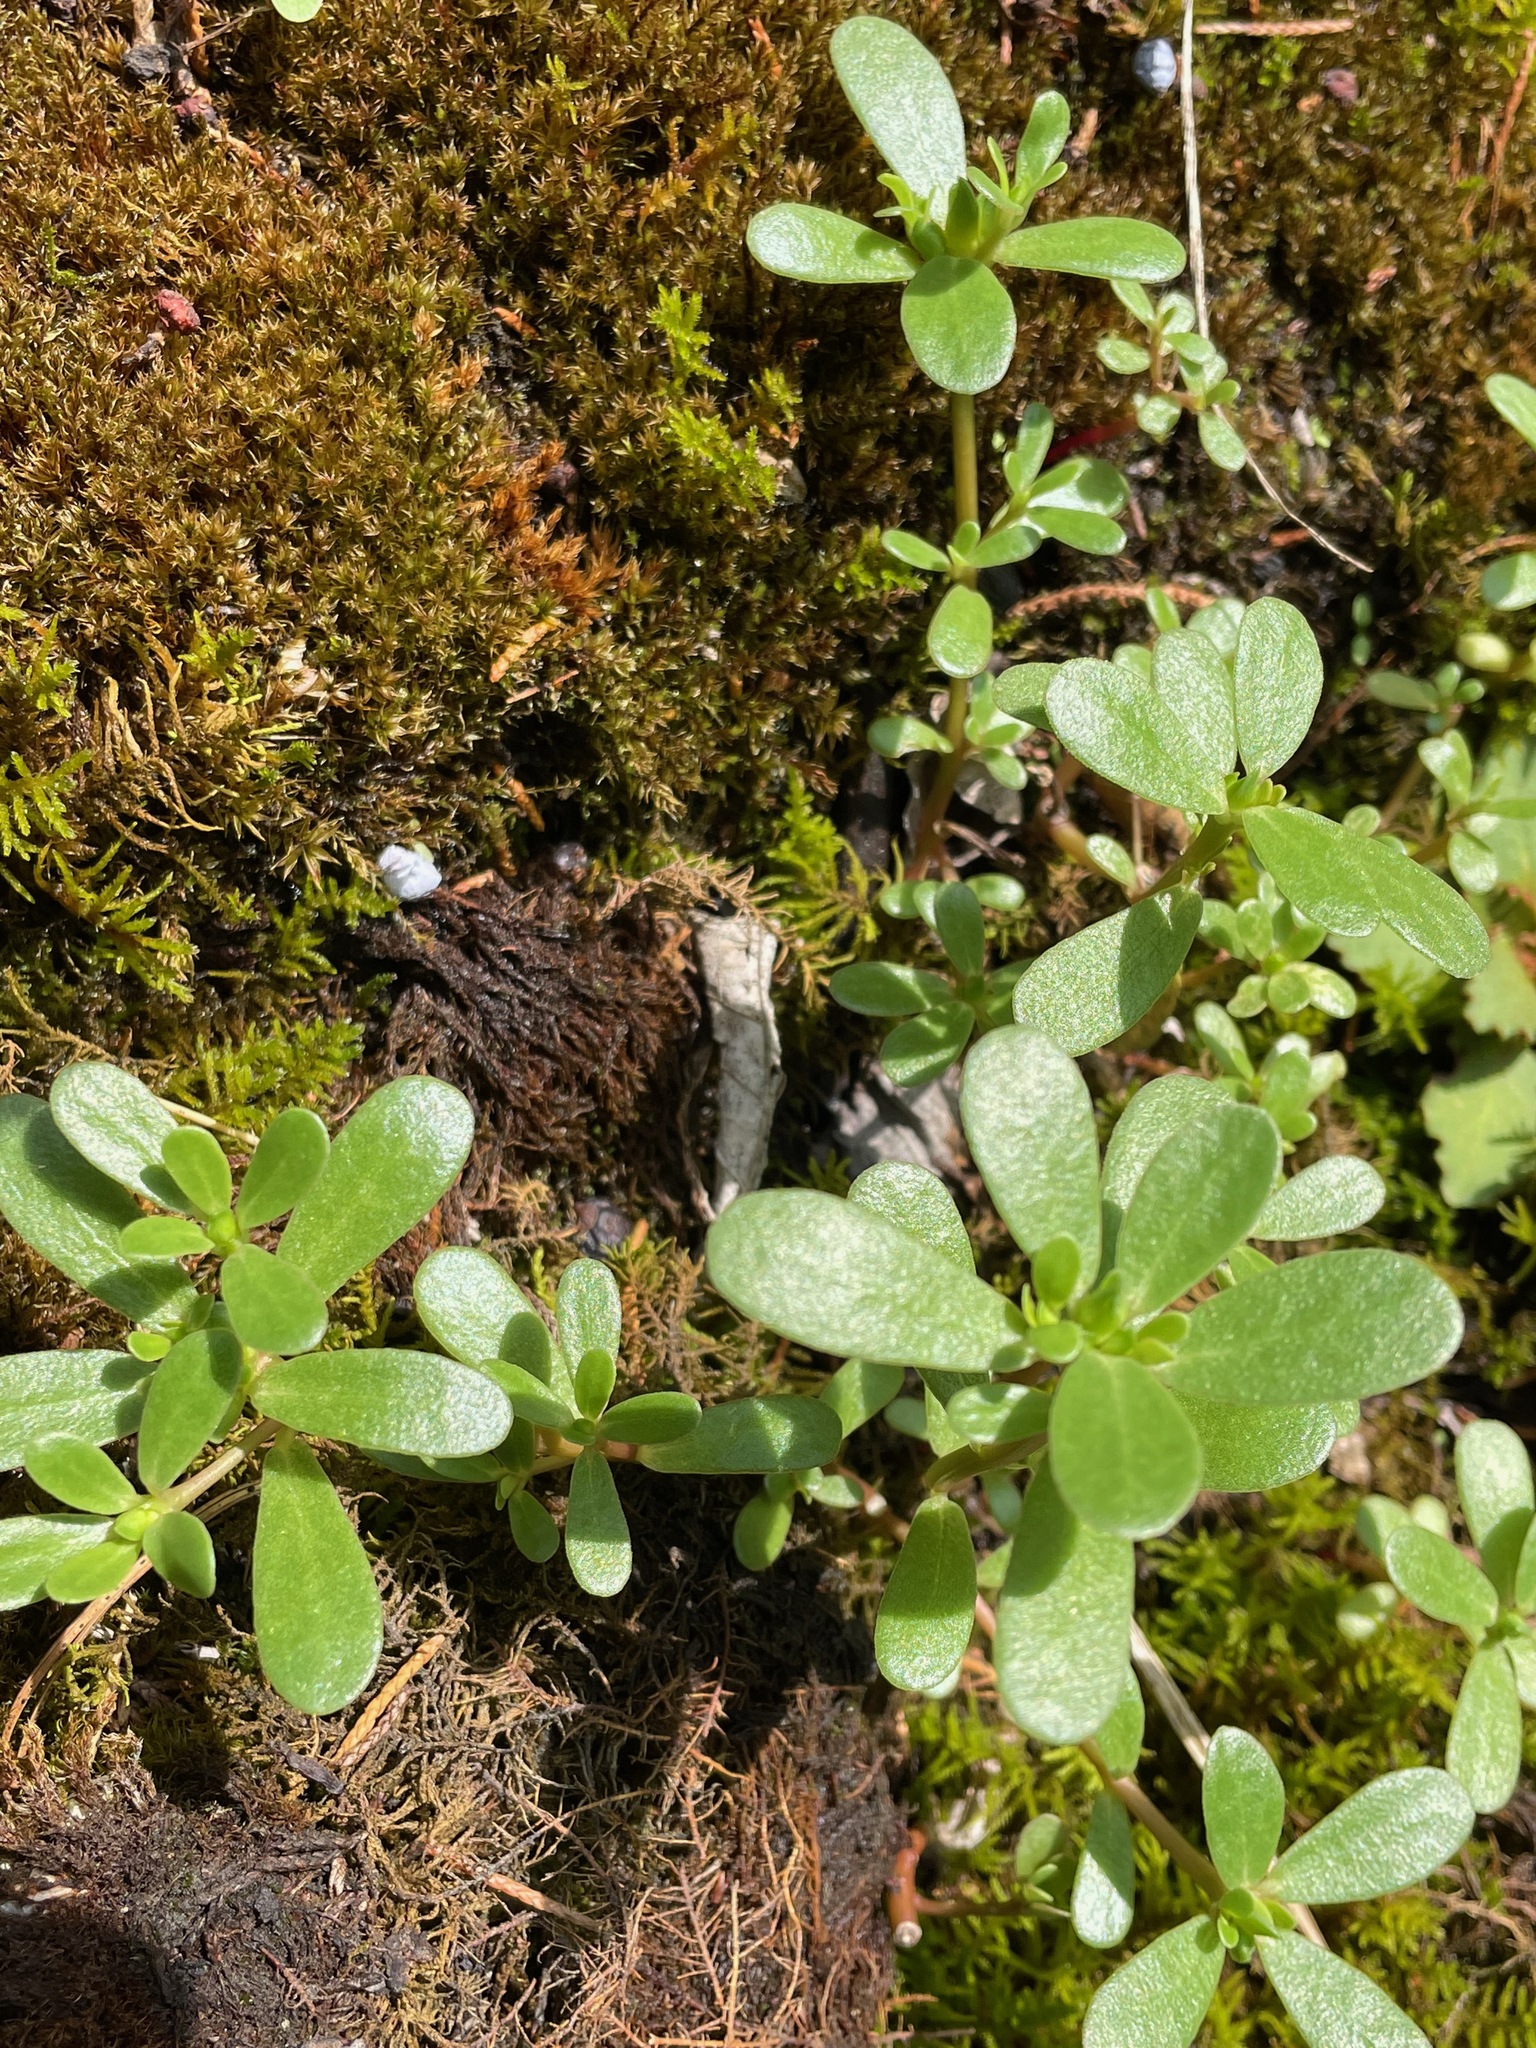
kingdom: Plantae
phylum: Tracheophyta
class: Magnoliopsida
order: Caryophyllales
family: Portulacaceae
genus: Portulaca
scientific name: Portulaca oleracea
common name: Common purslane
